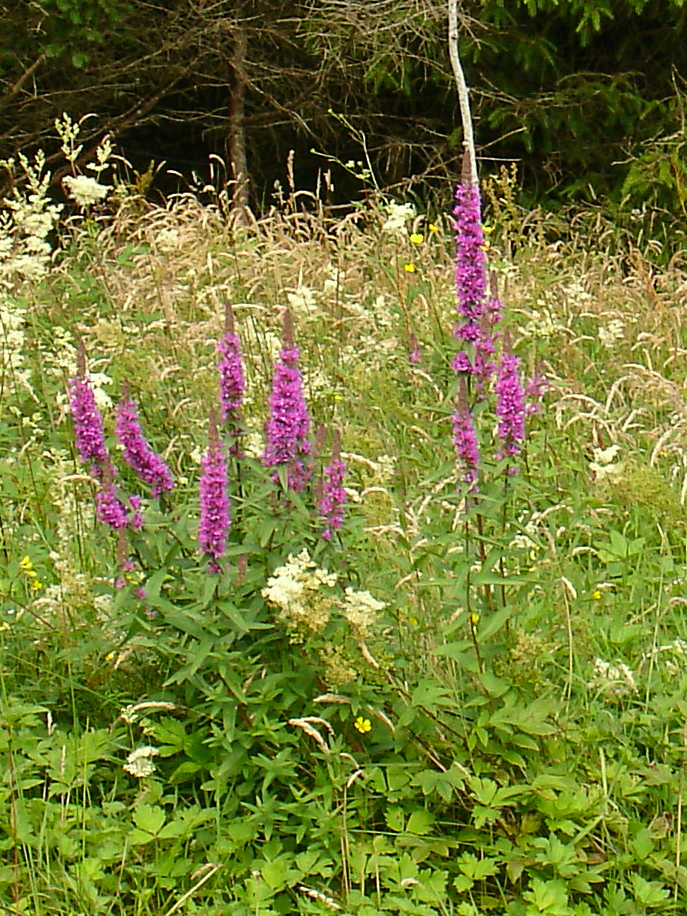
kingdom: Plantae
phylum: Tracheophyta
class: Magnoliopsida
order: Myrtales
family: Lythraceae
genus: Lythrum
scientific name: Lythrum salicaria
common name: Purple loosestrife
